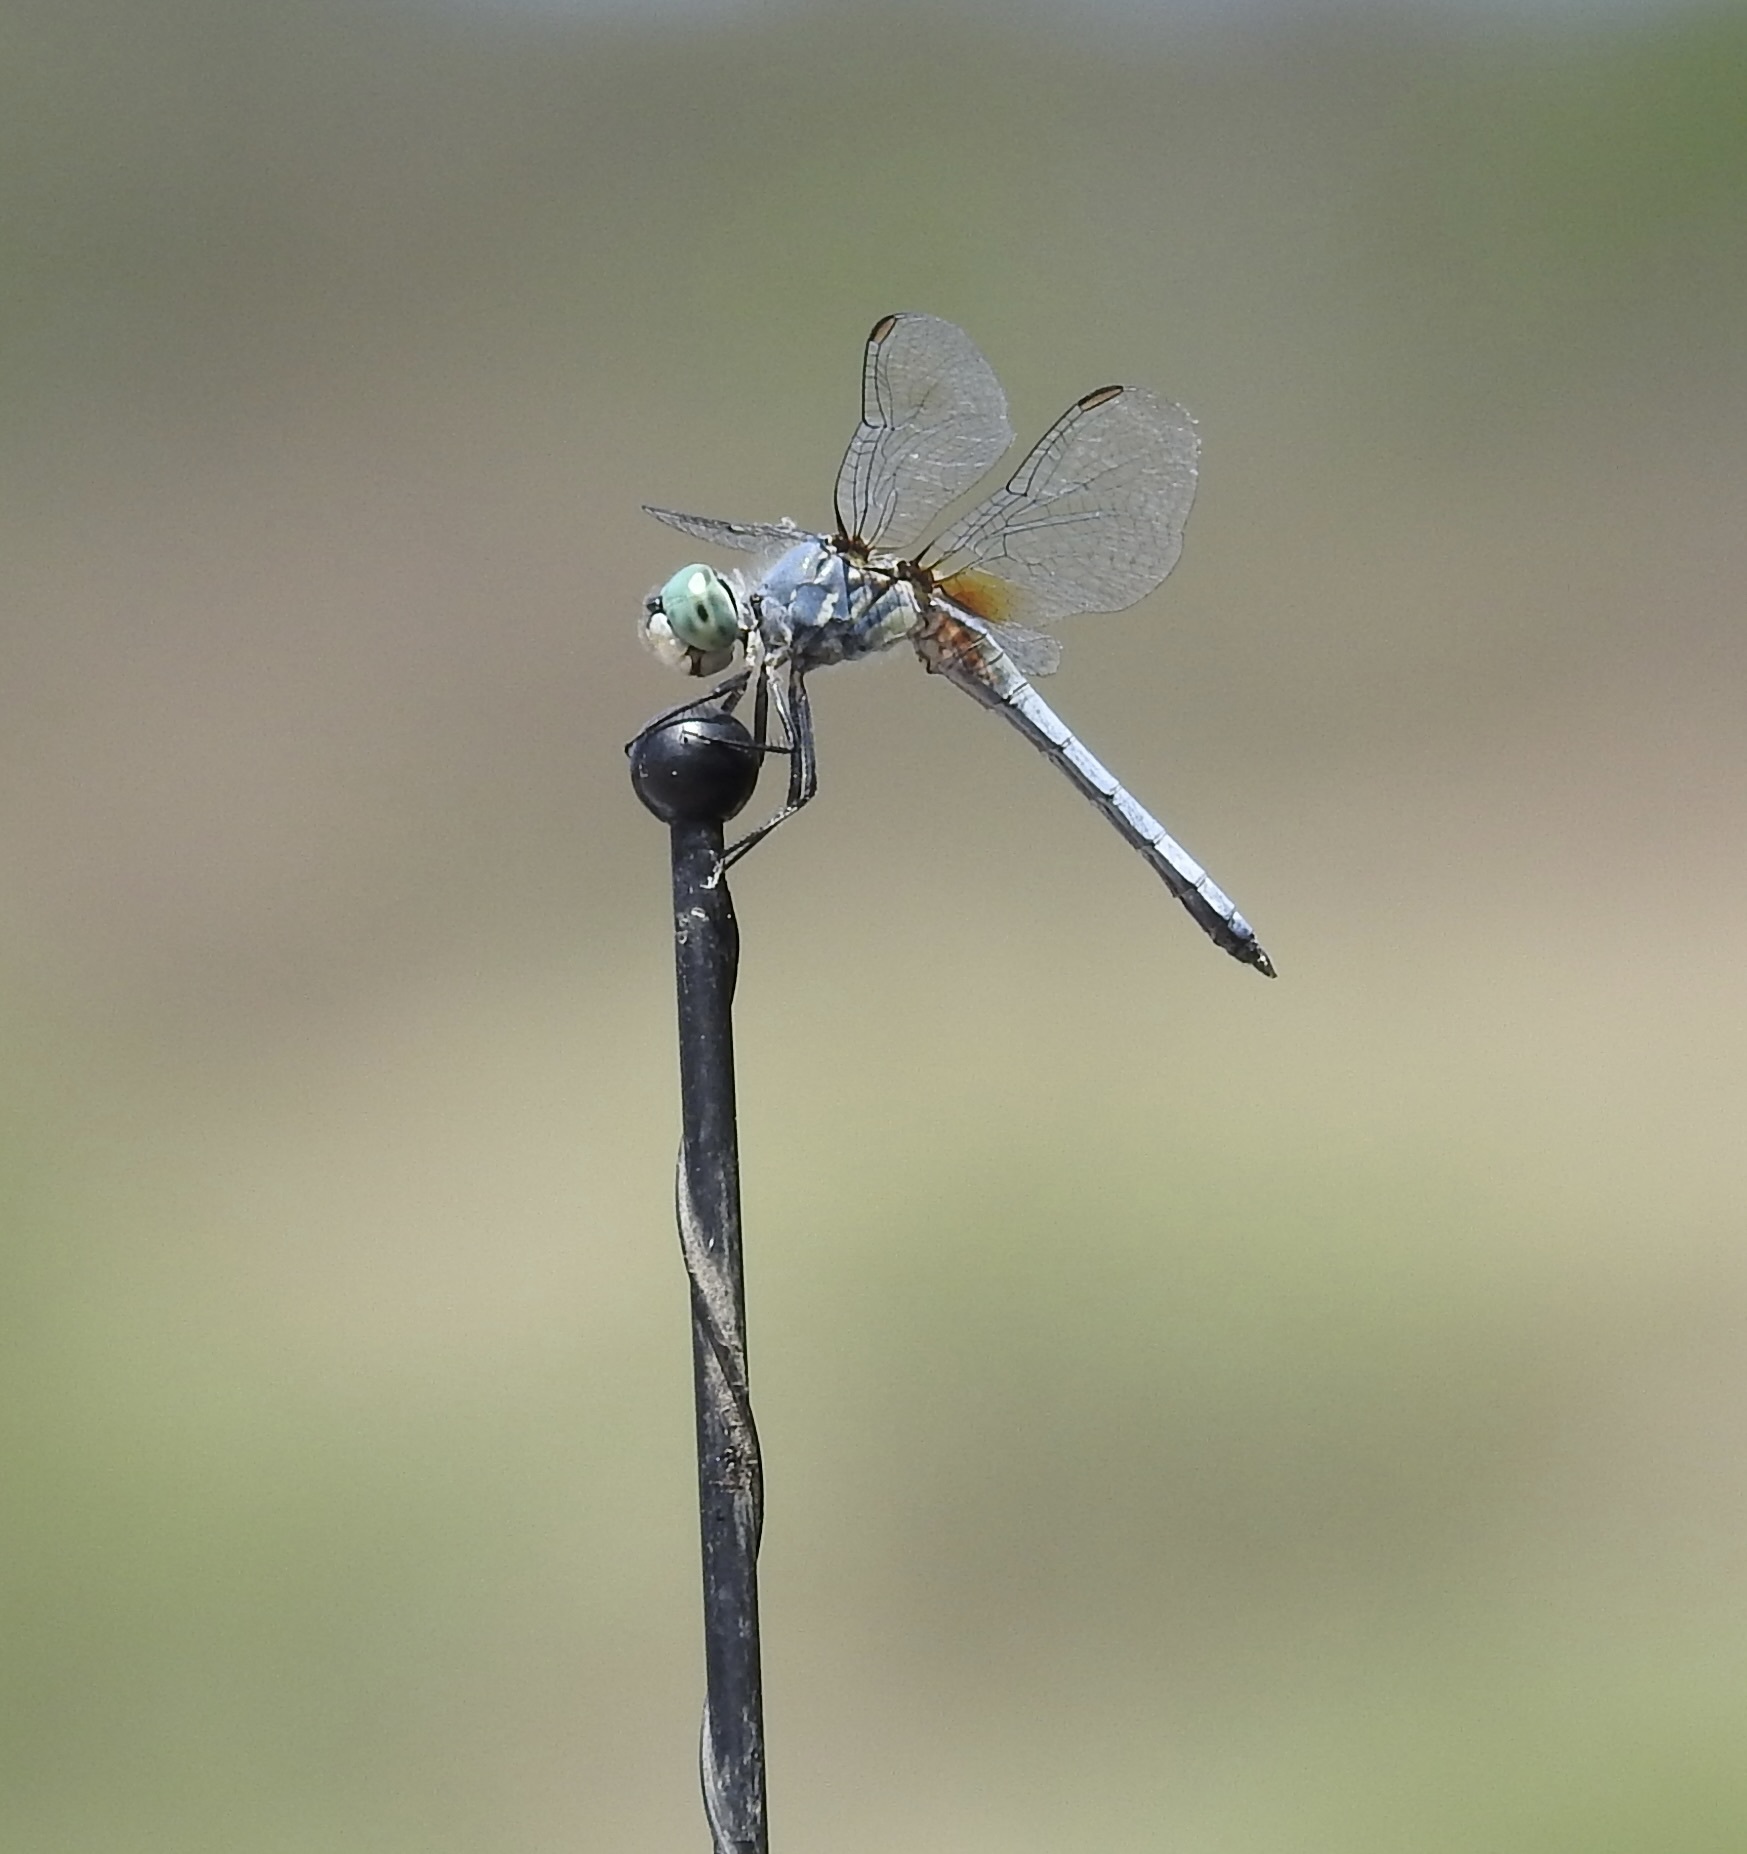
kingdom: Animalia
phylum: Arthropoda
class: Insecta
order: Odonata
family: Libellulidae
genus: Pachydiplax
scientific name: Pachydiplax longipennis
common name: Blue dasher
